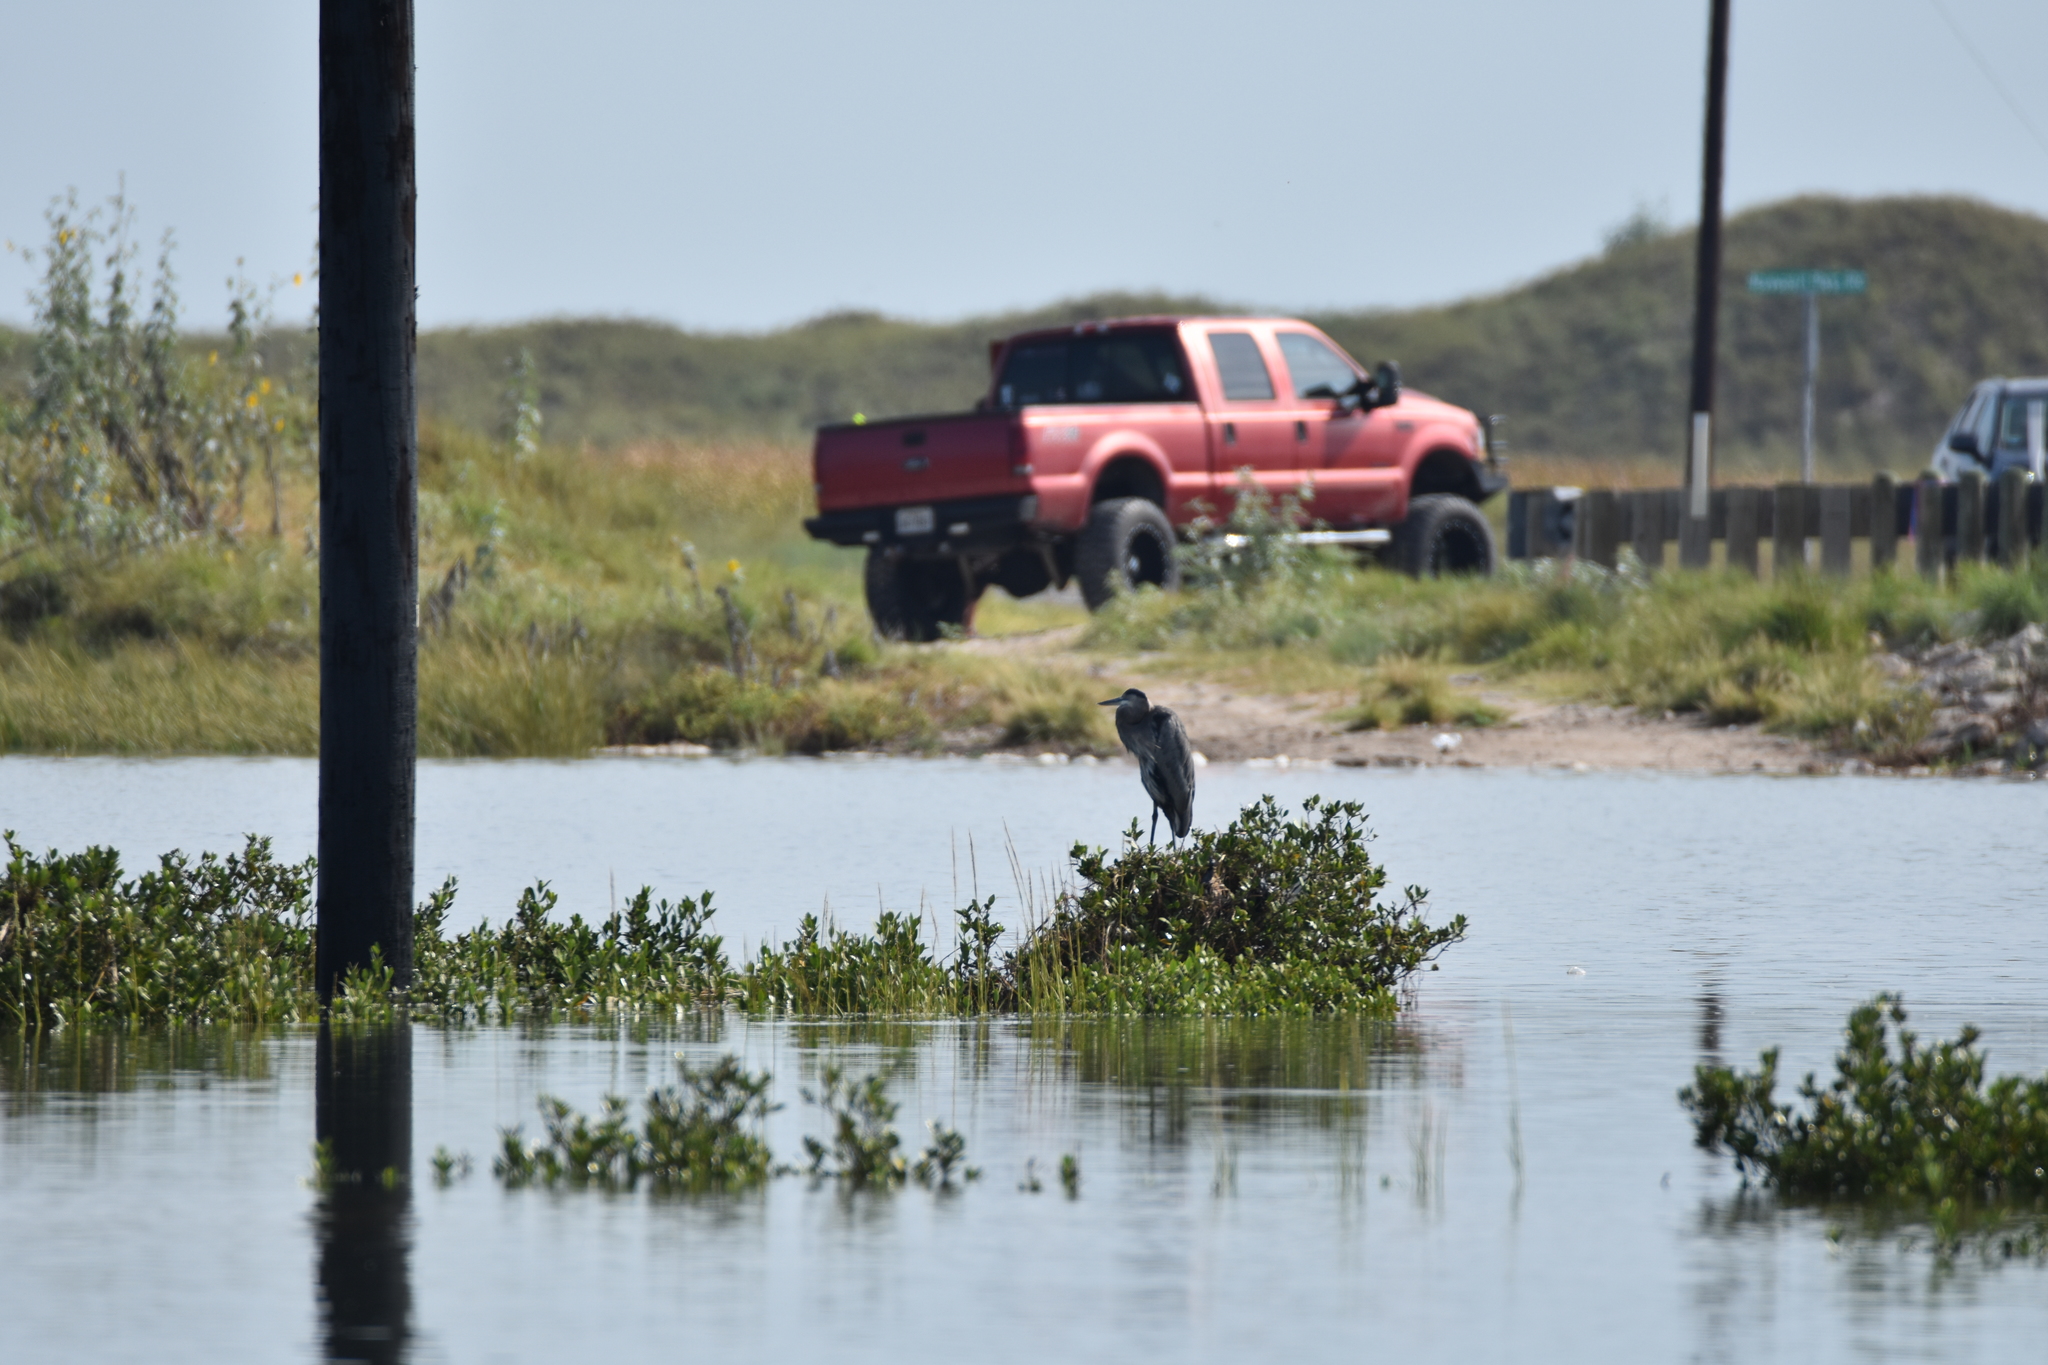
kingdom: Animalia
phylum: Chordata
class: Aves
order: Pelecaniformes
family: Ardeidae
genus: Ardea
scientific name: Ardea herodias
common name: Great blue heron
